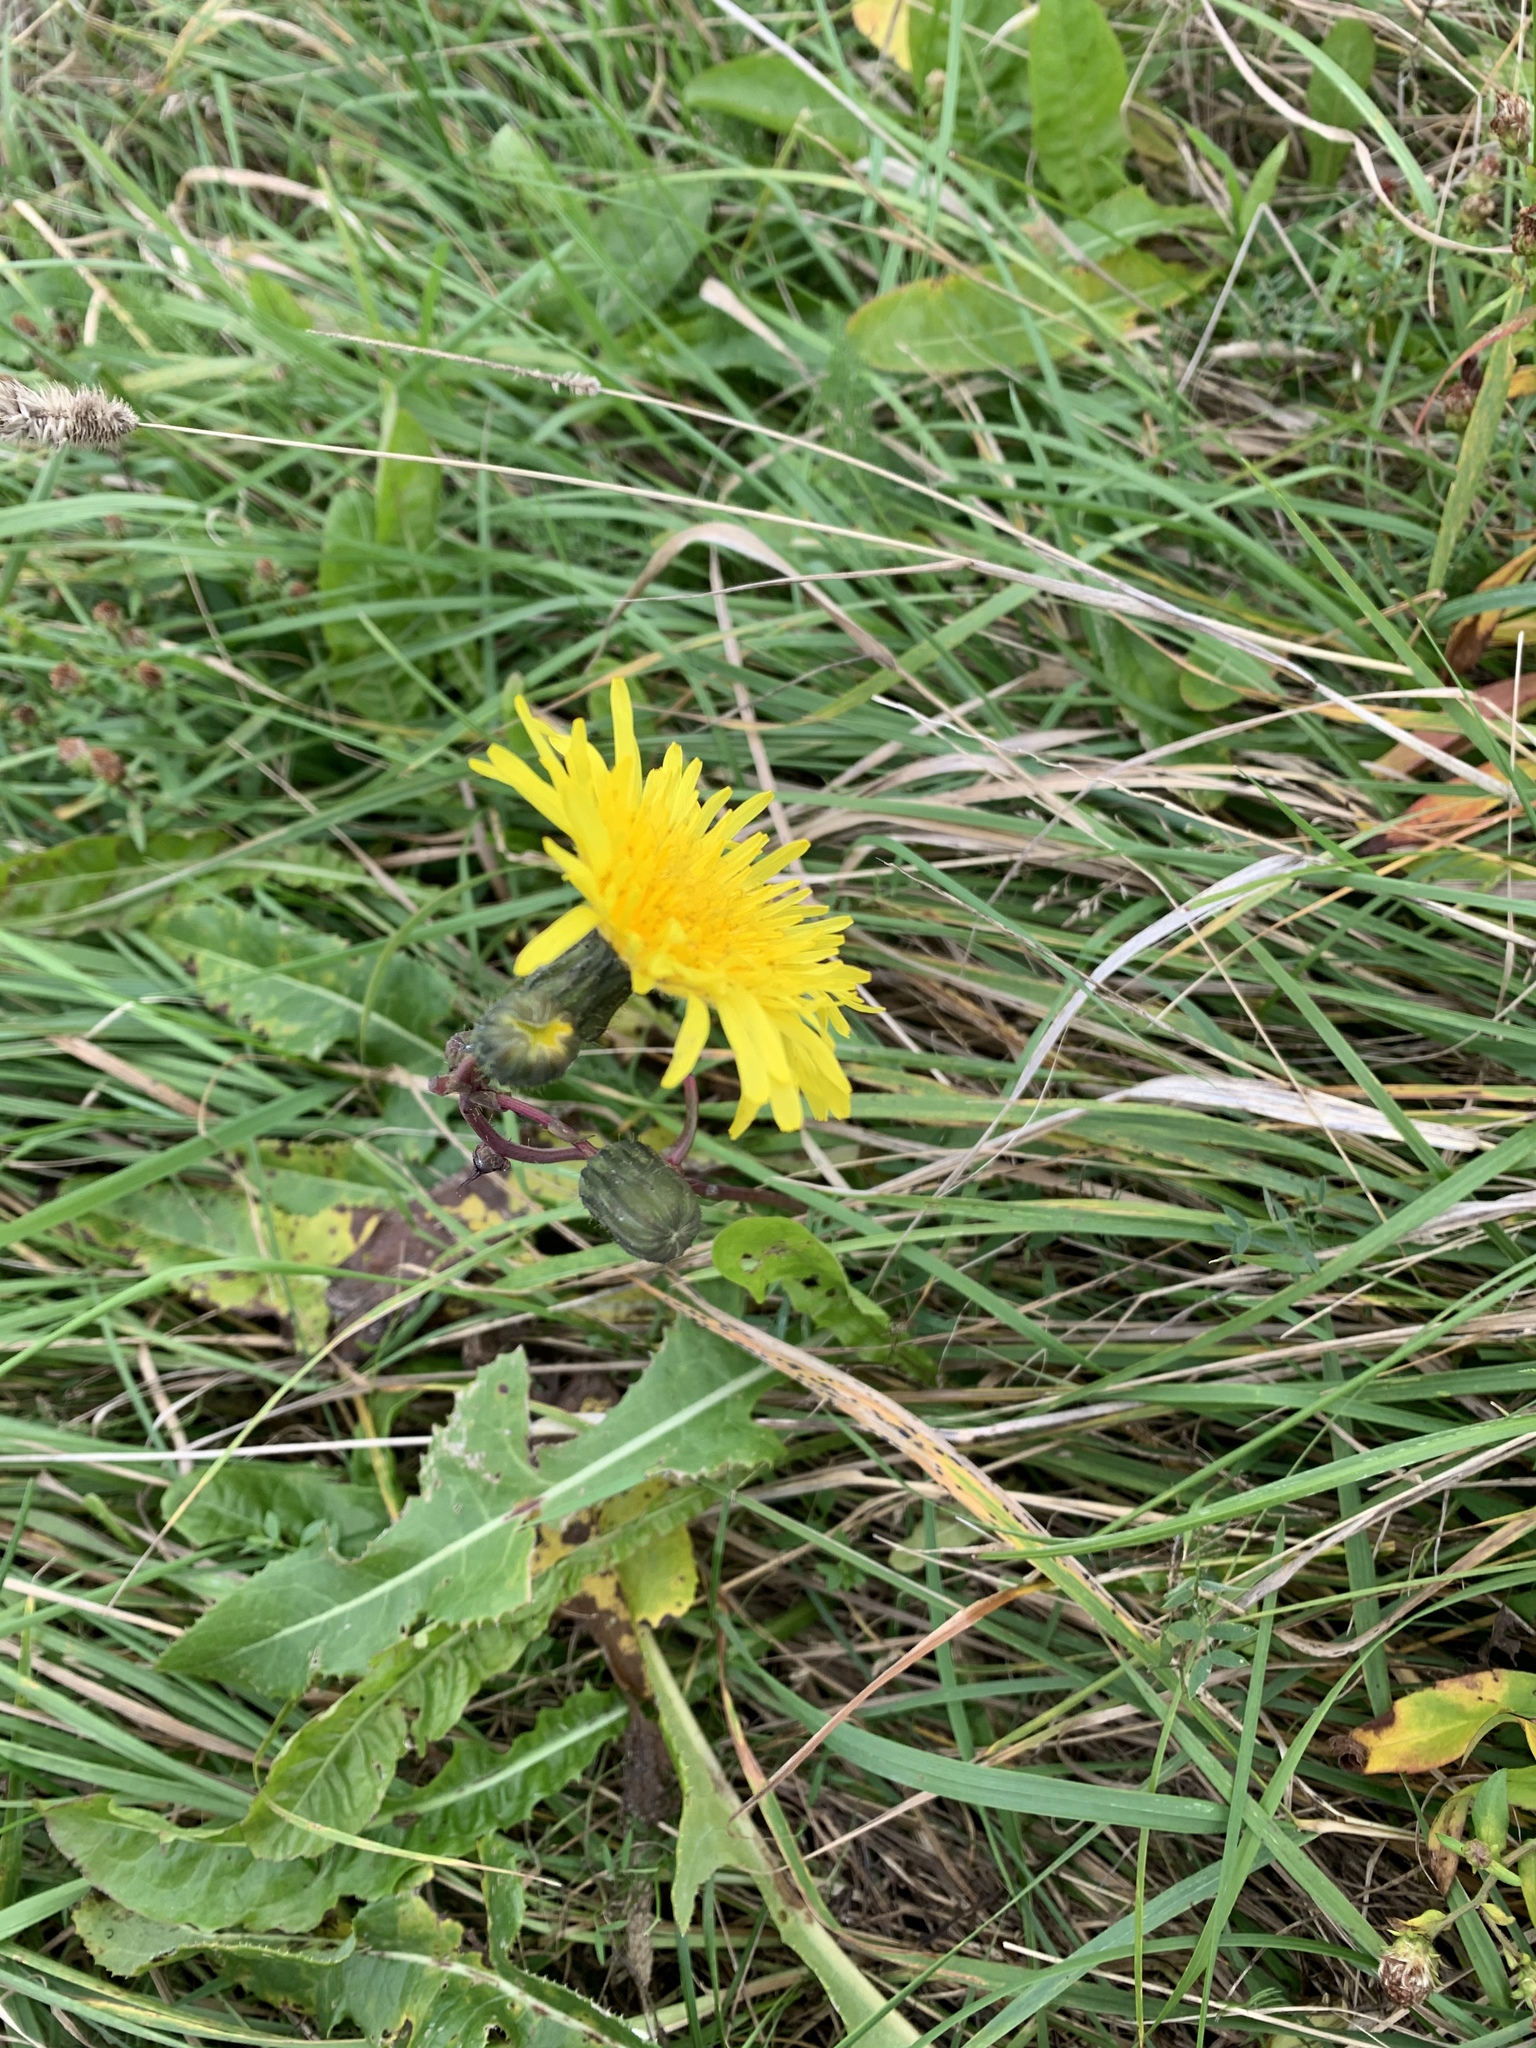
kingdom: Plantae
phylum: Tracheophyta
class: Magnoliopsida
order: Asterales
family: Asteraceae
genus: Sonchus
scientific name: Sonchus arvensis
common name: Perennial sow-thistle
